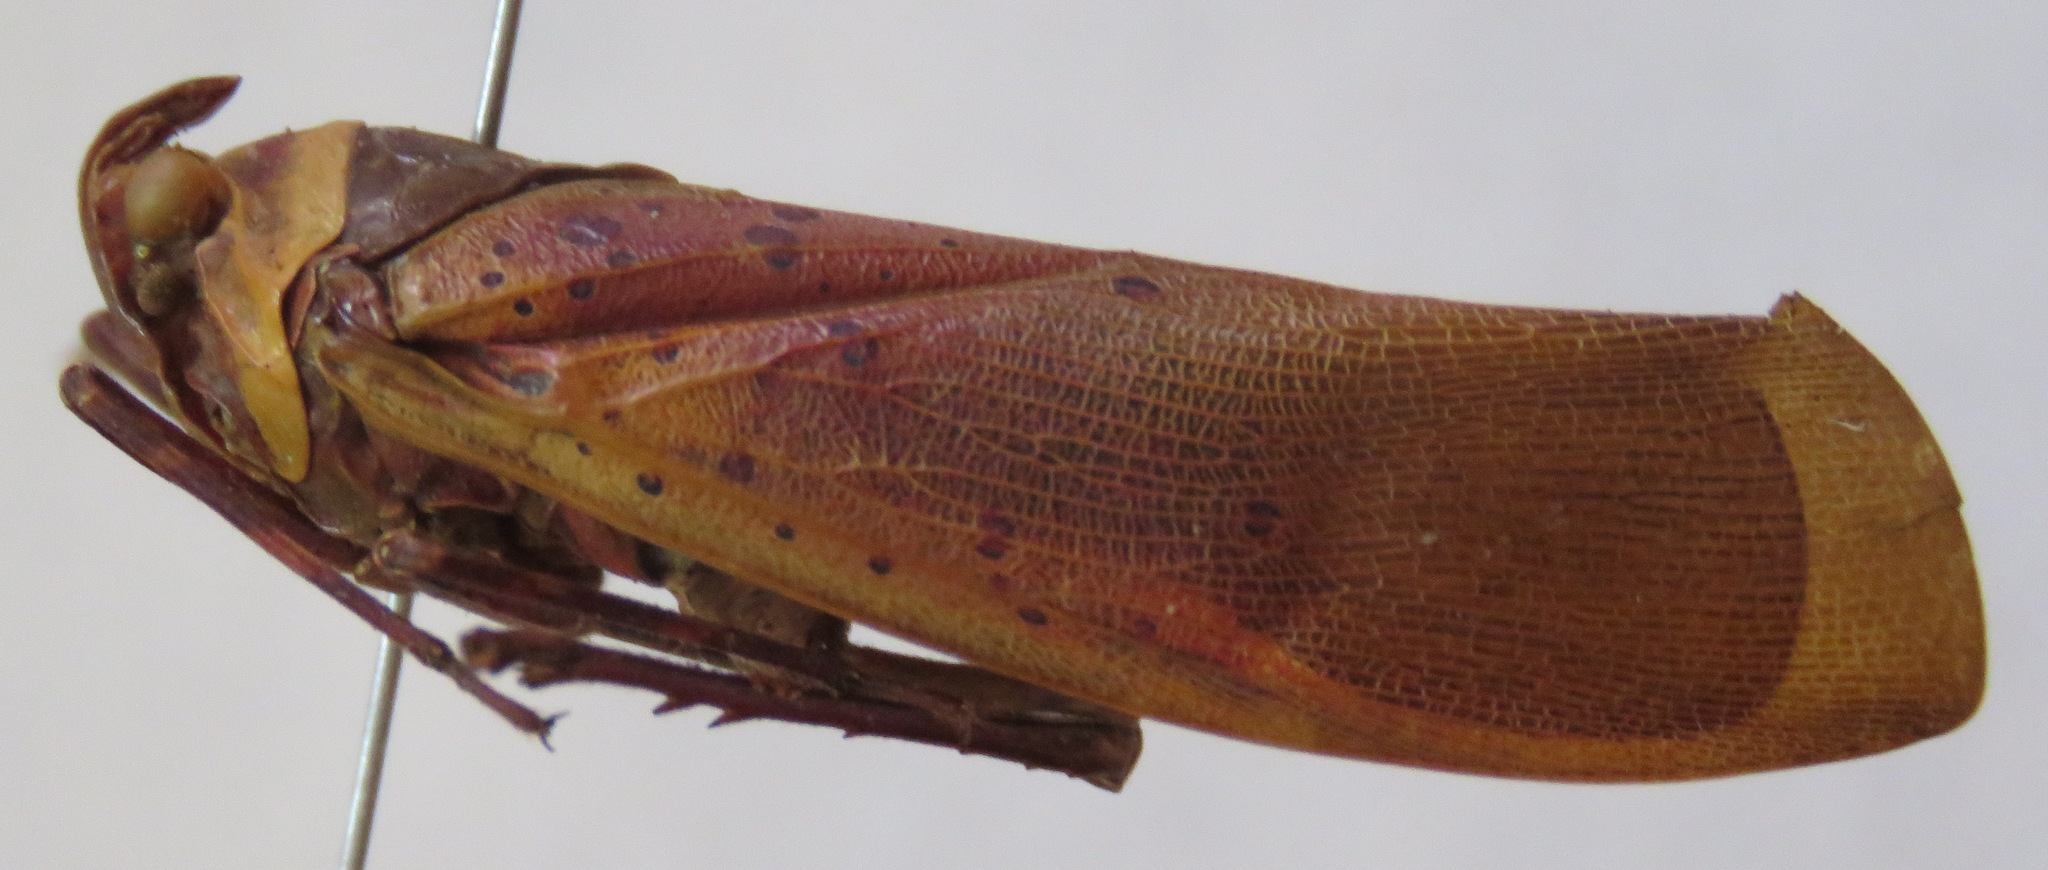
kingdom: Animalia
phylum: Arthropoda
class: Insecta
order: Hemiptera
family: Fulgoridae
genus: Copidocephala
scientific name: Copidocephala guttata
